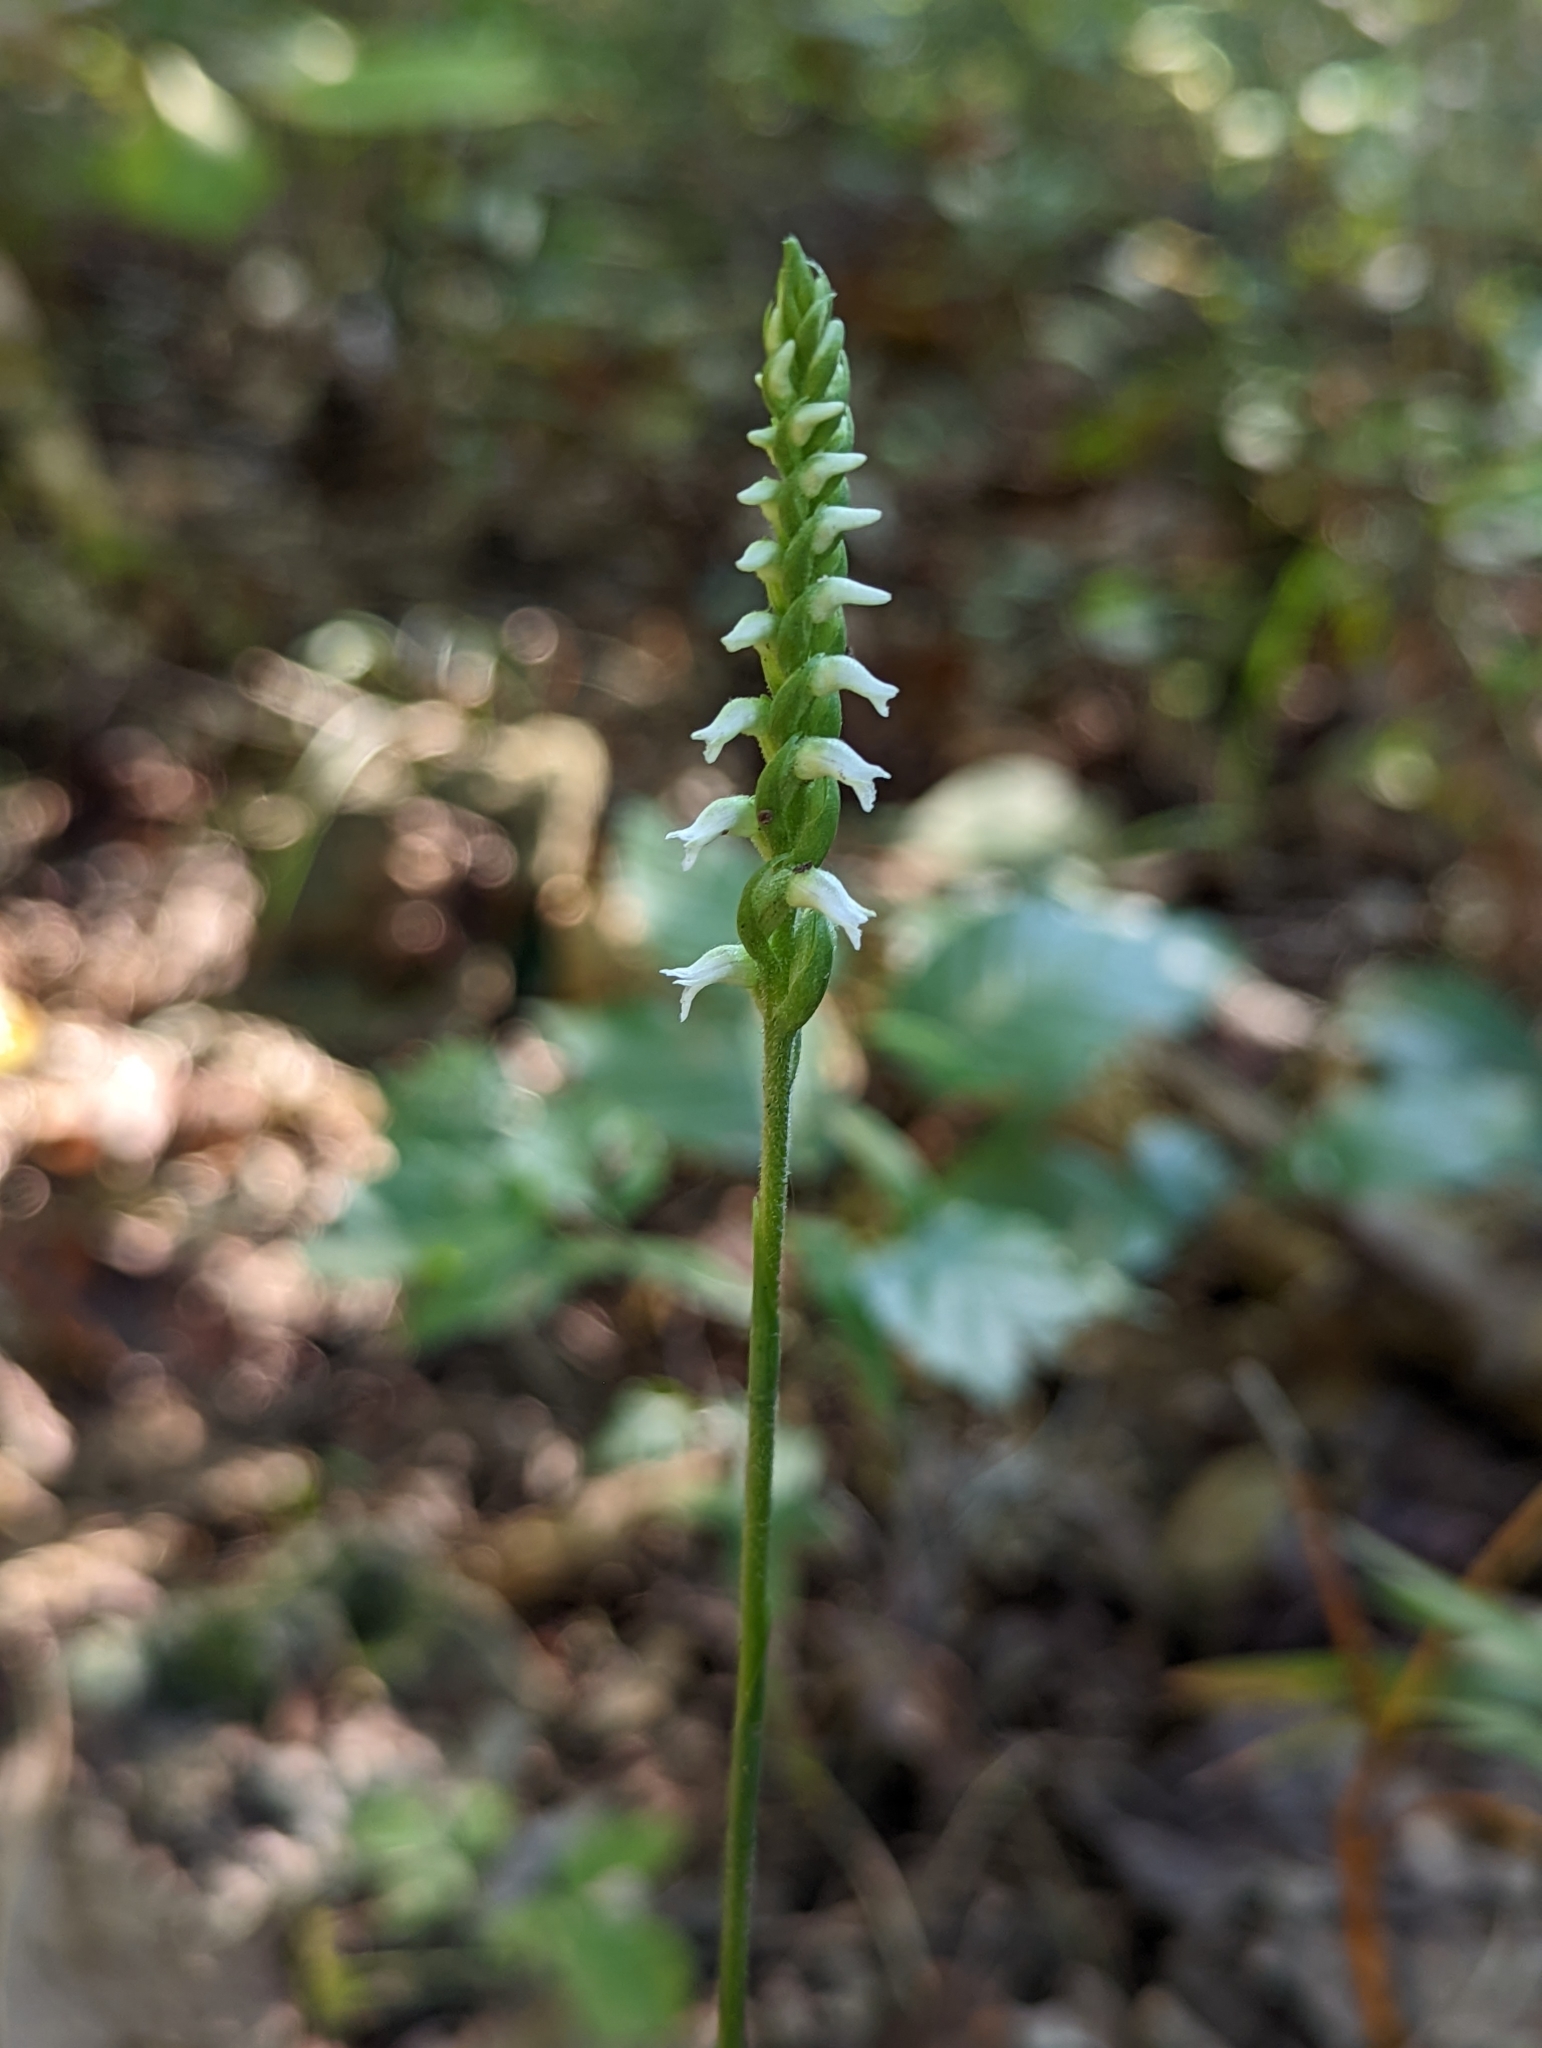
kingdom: Plantae
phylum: Tracheophyta
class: Liliopsida
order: Asparagales
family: Orchidaceae
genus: Spiranthes
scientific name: Spiranthes ovalis
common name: October ladies'-tresses
